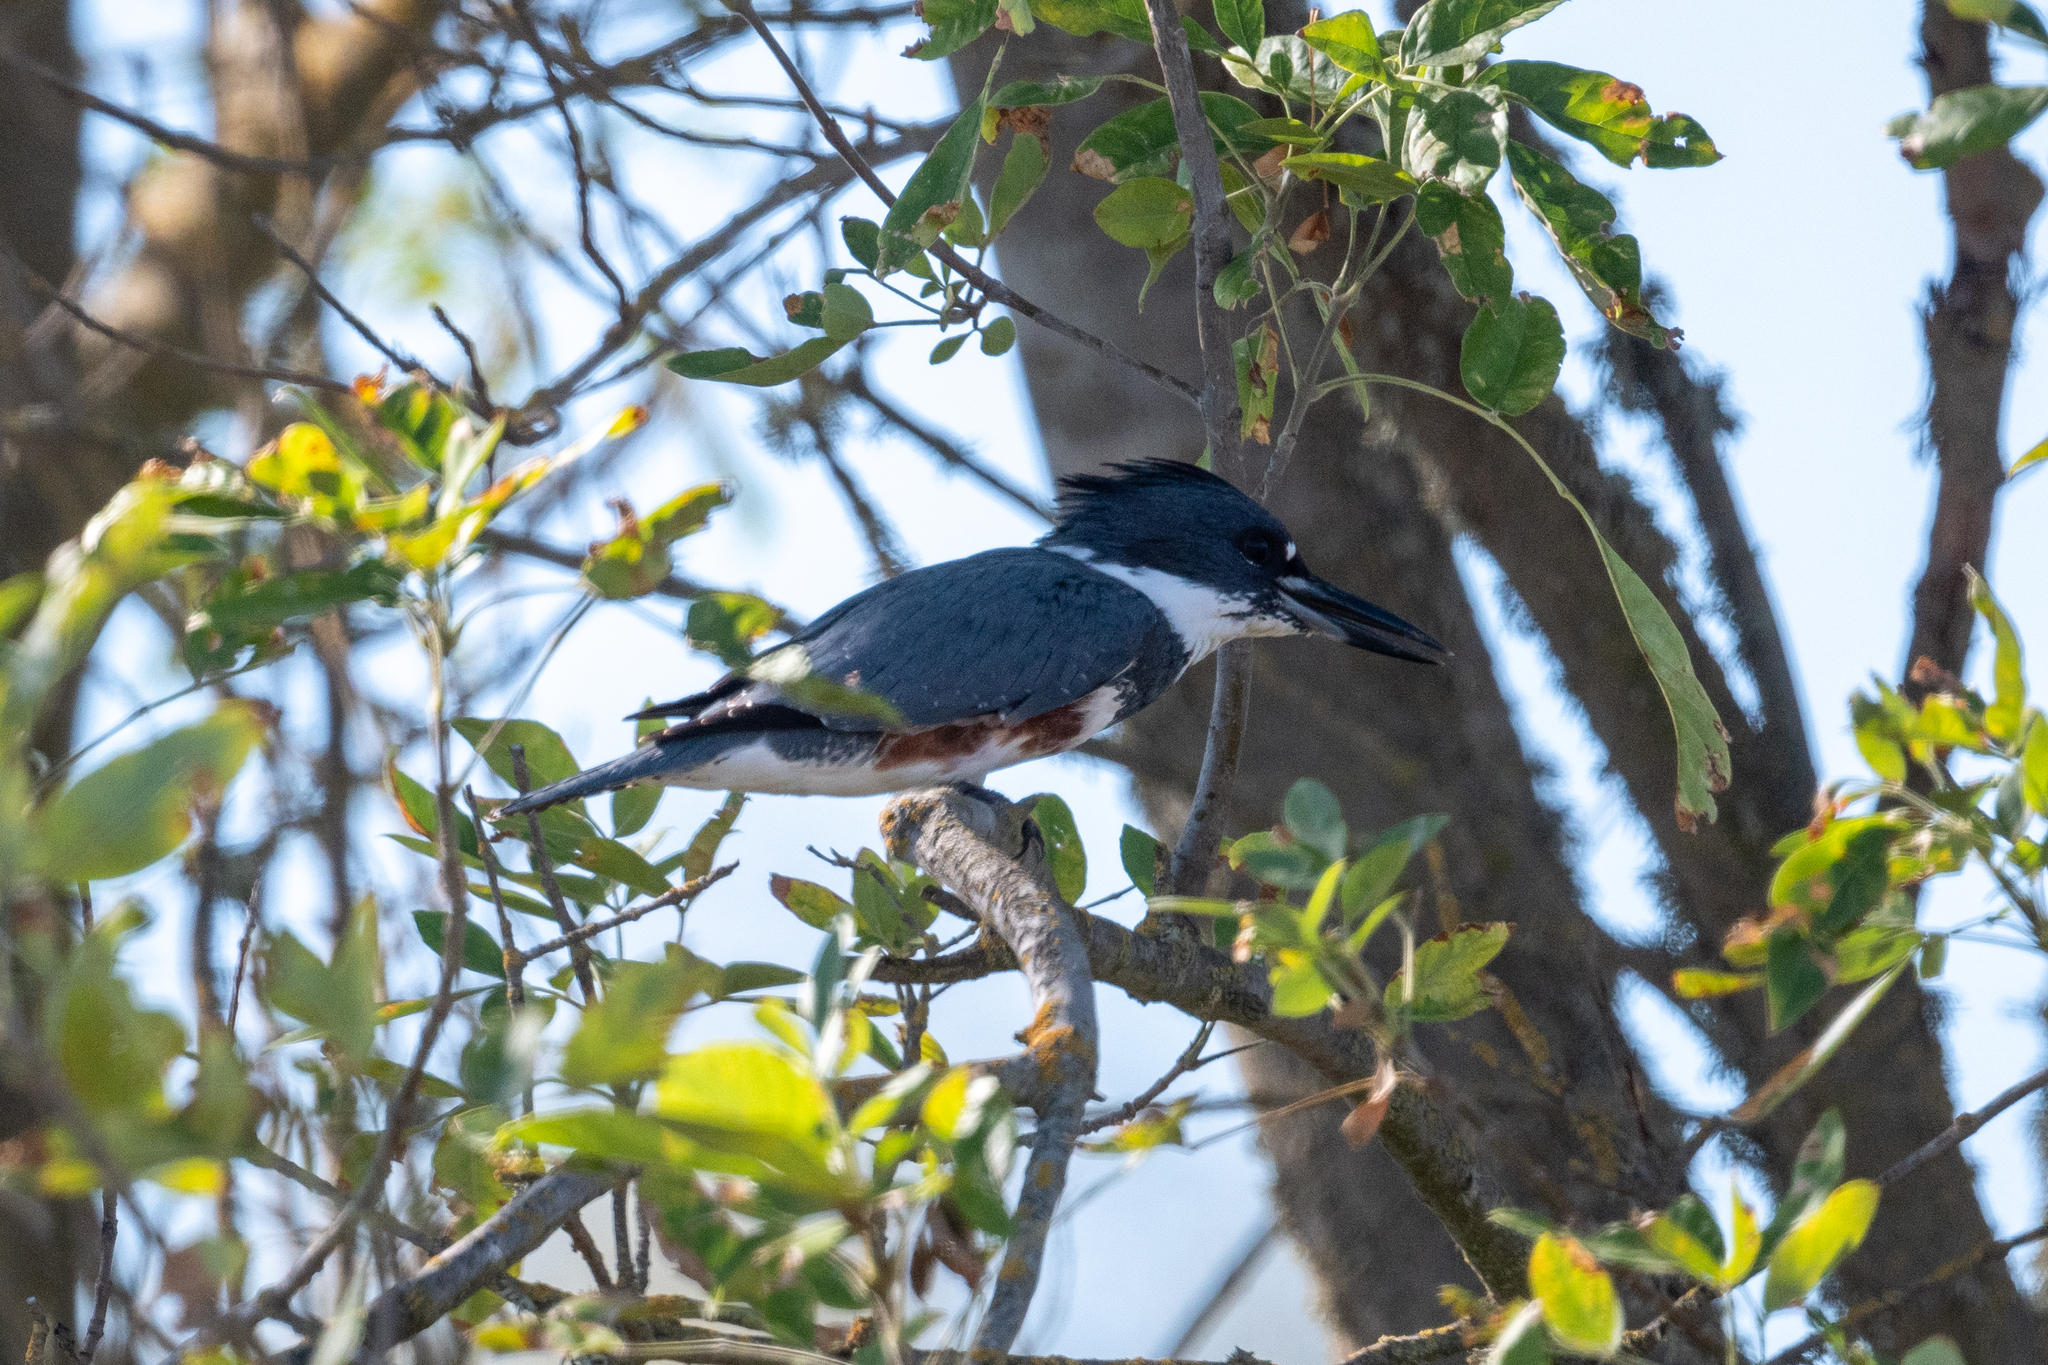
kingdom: Animalia
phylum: Chordata
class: Aves
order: Coraciiformes
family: Alcedinidae
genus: Megaceryle
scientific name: Megaceryle alcyon
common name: Belted kingfisher
